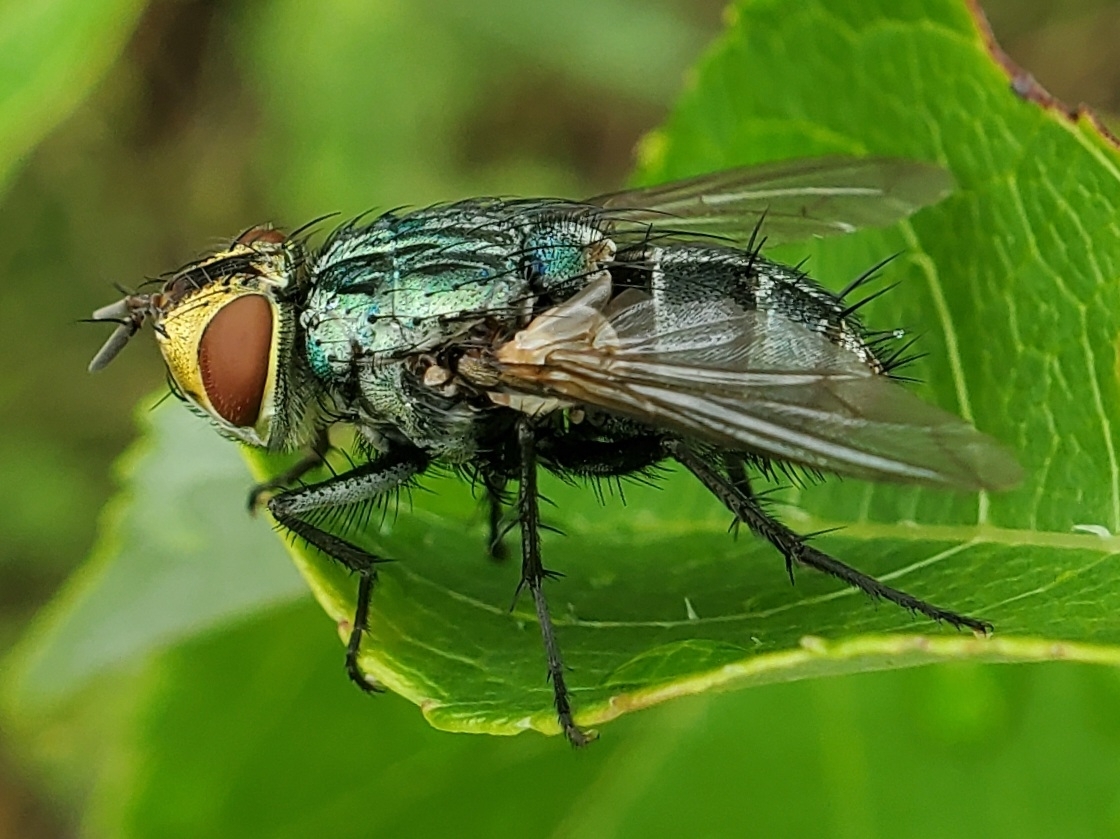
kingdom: Animalia
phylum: Arthropoda
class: Insecta
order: Diptera
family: Tachinidae
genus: Mystacella
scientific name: Mystacella chrysoprocta
